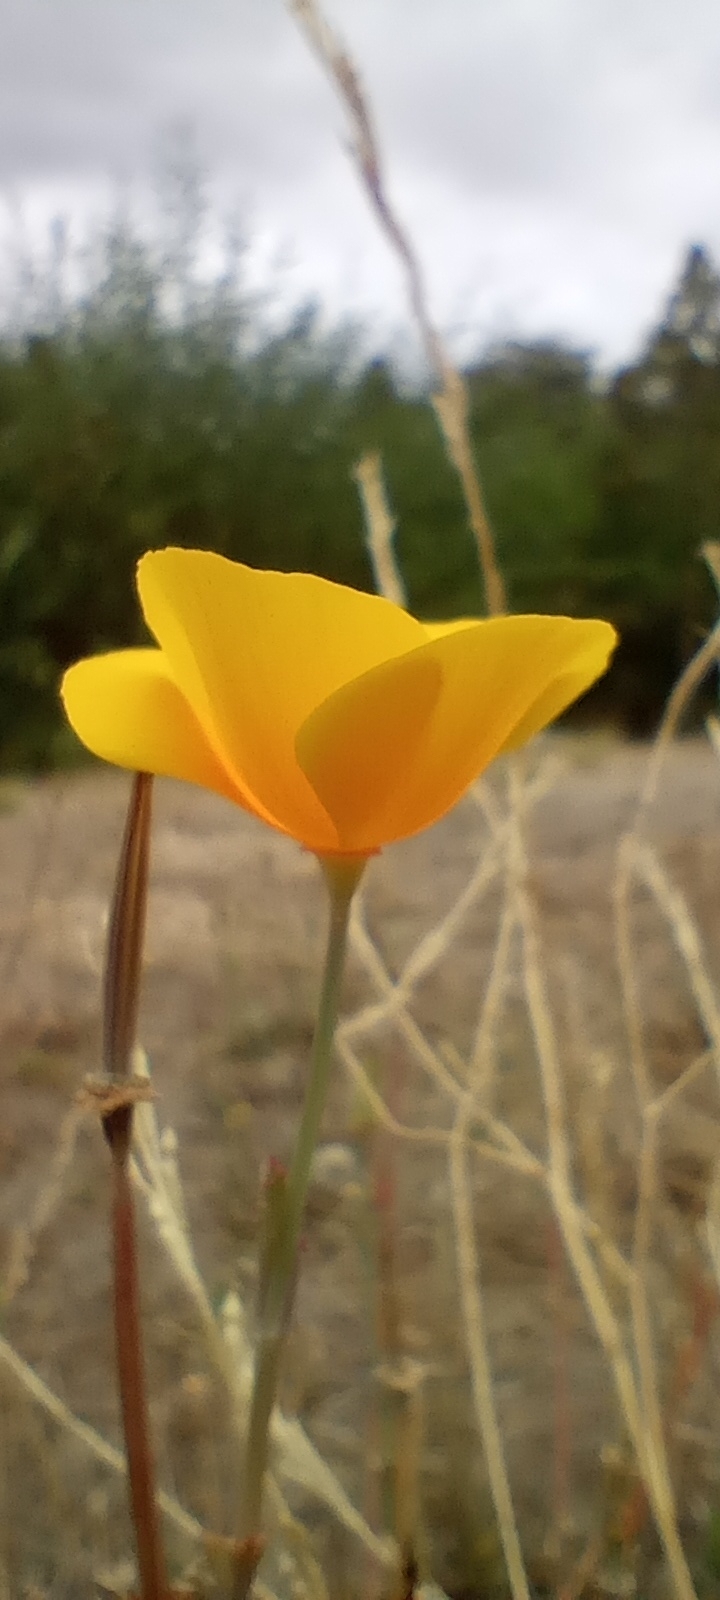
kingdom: Plantae
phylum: Tracheophyta
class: Magnoliopsida
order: Ranunculales
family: Papaveraceae
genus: Eschscholzia
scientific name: Eschscholzia californica
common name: California poppy
